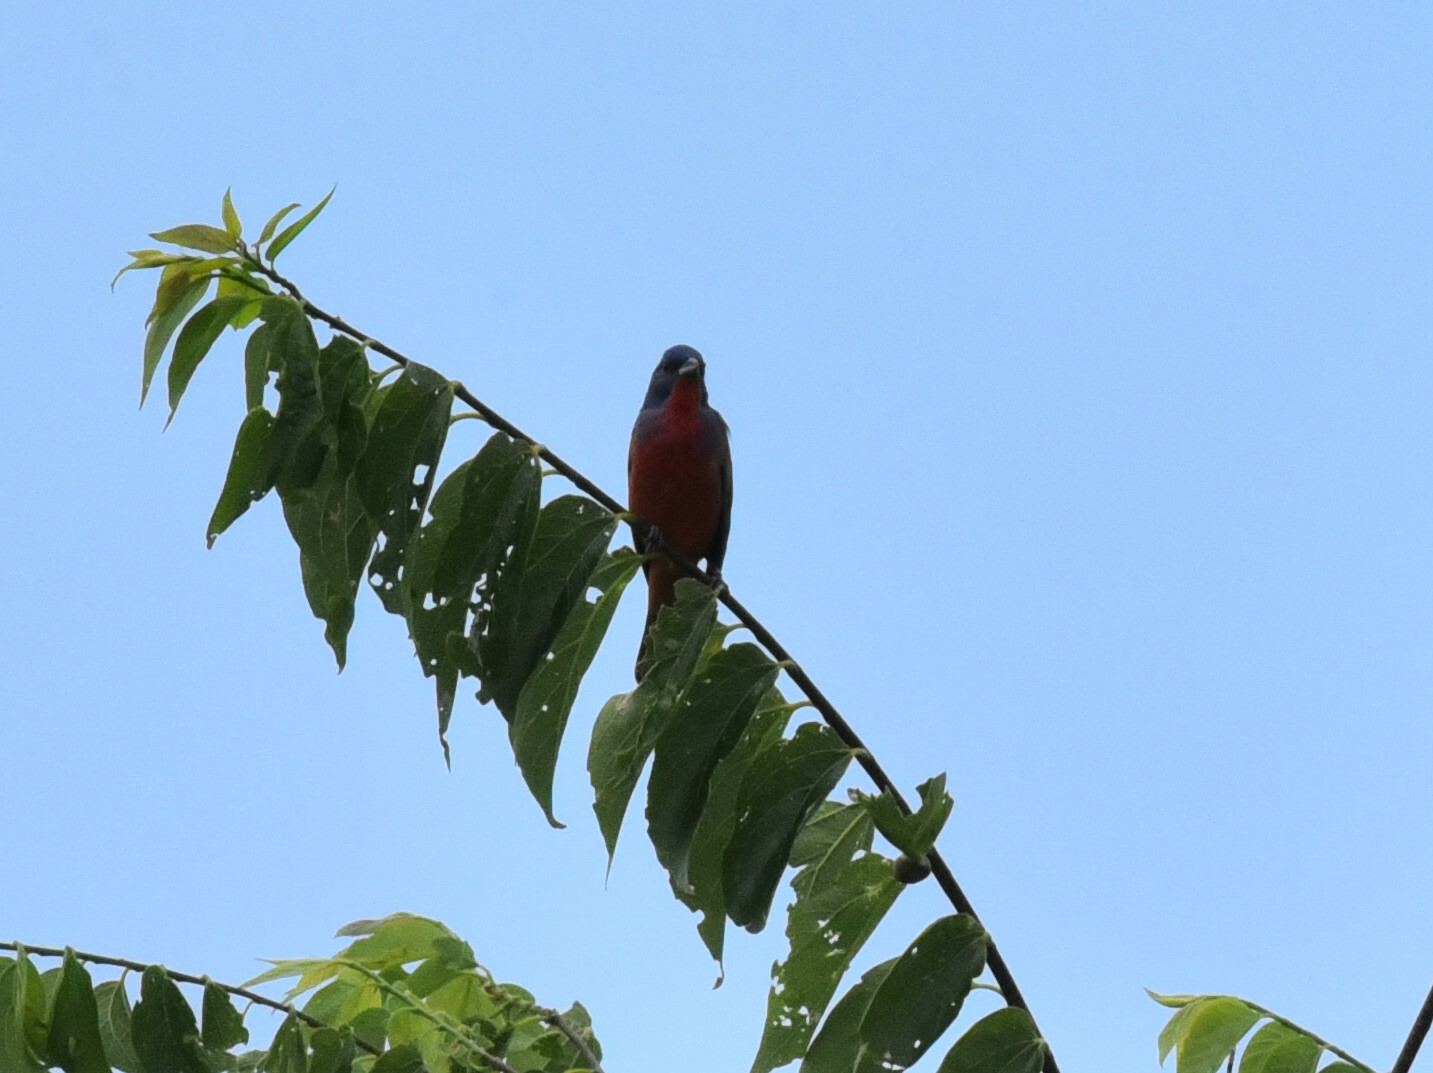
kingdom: Animalia
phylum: Chordata
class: Aves
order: Passeriformes
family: Cardinalidae
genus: Passerina
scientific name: Passerina ciris
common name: Painted bunting
